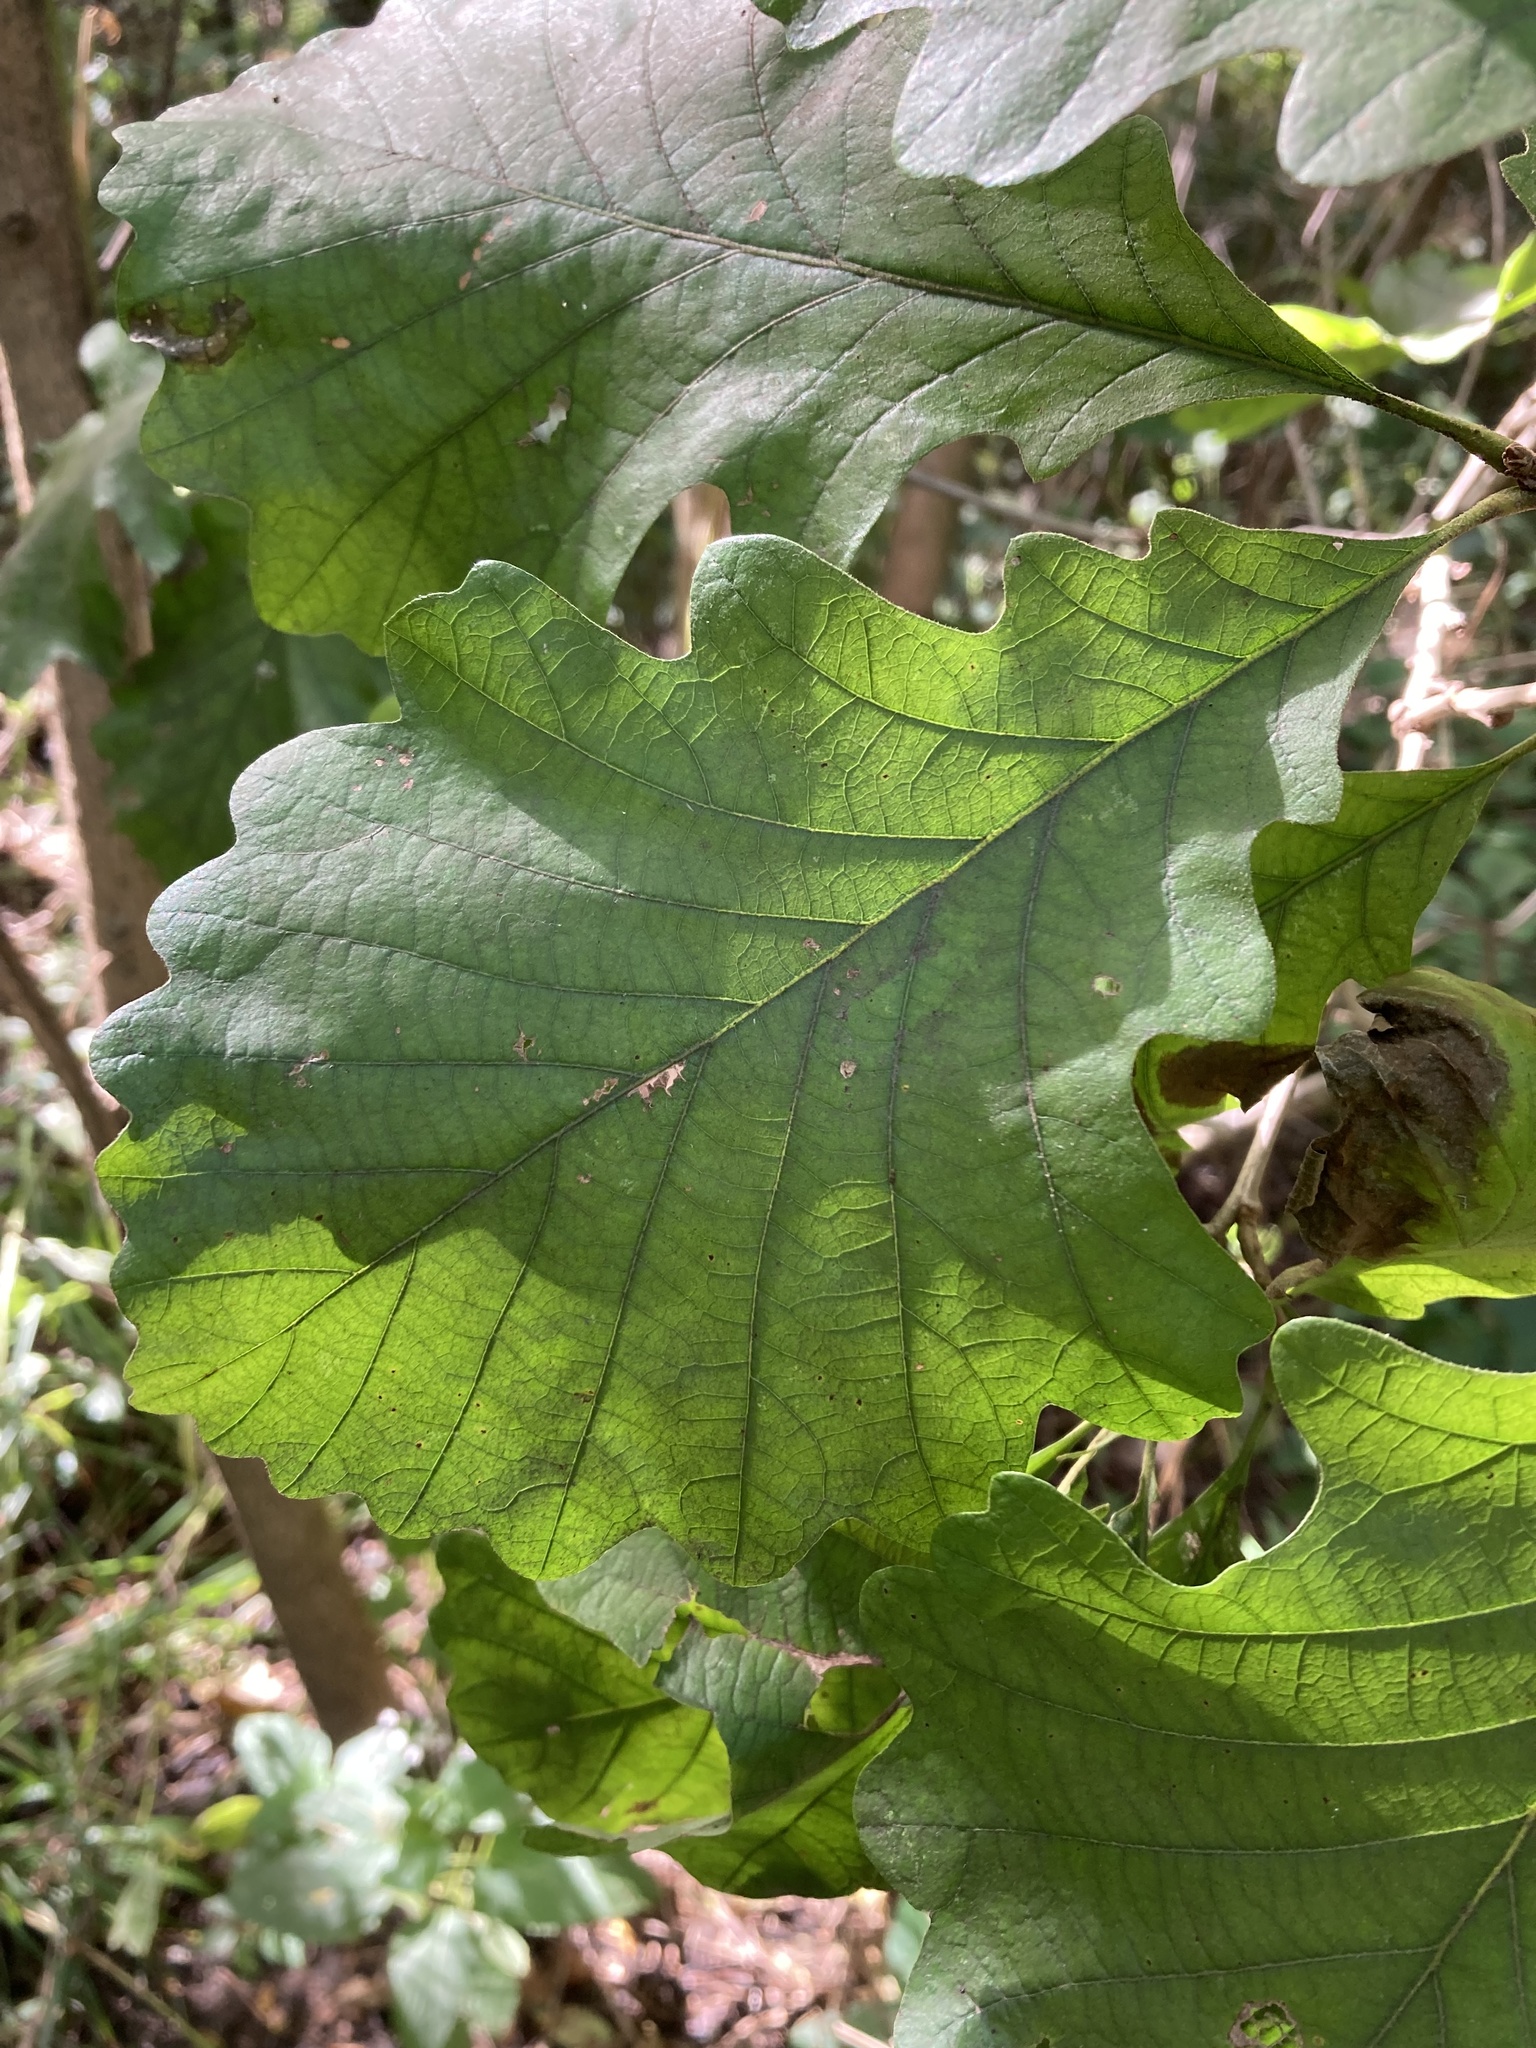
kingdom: Plantae
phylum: Tracheophyta
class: Magnoliopsida
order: Fagales
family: Fagaceae
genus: Quercus
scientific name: Quercus macrocarpa
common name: Bur oak
